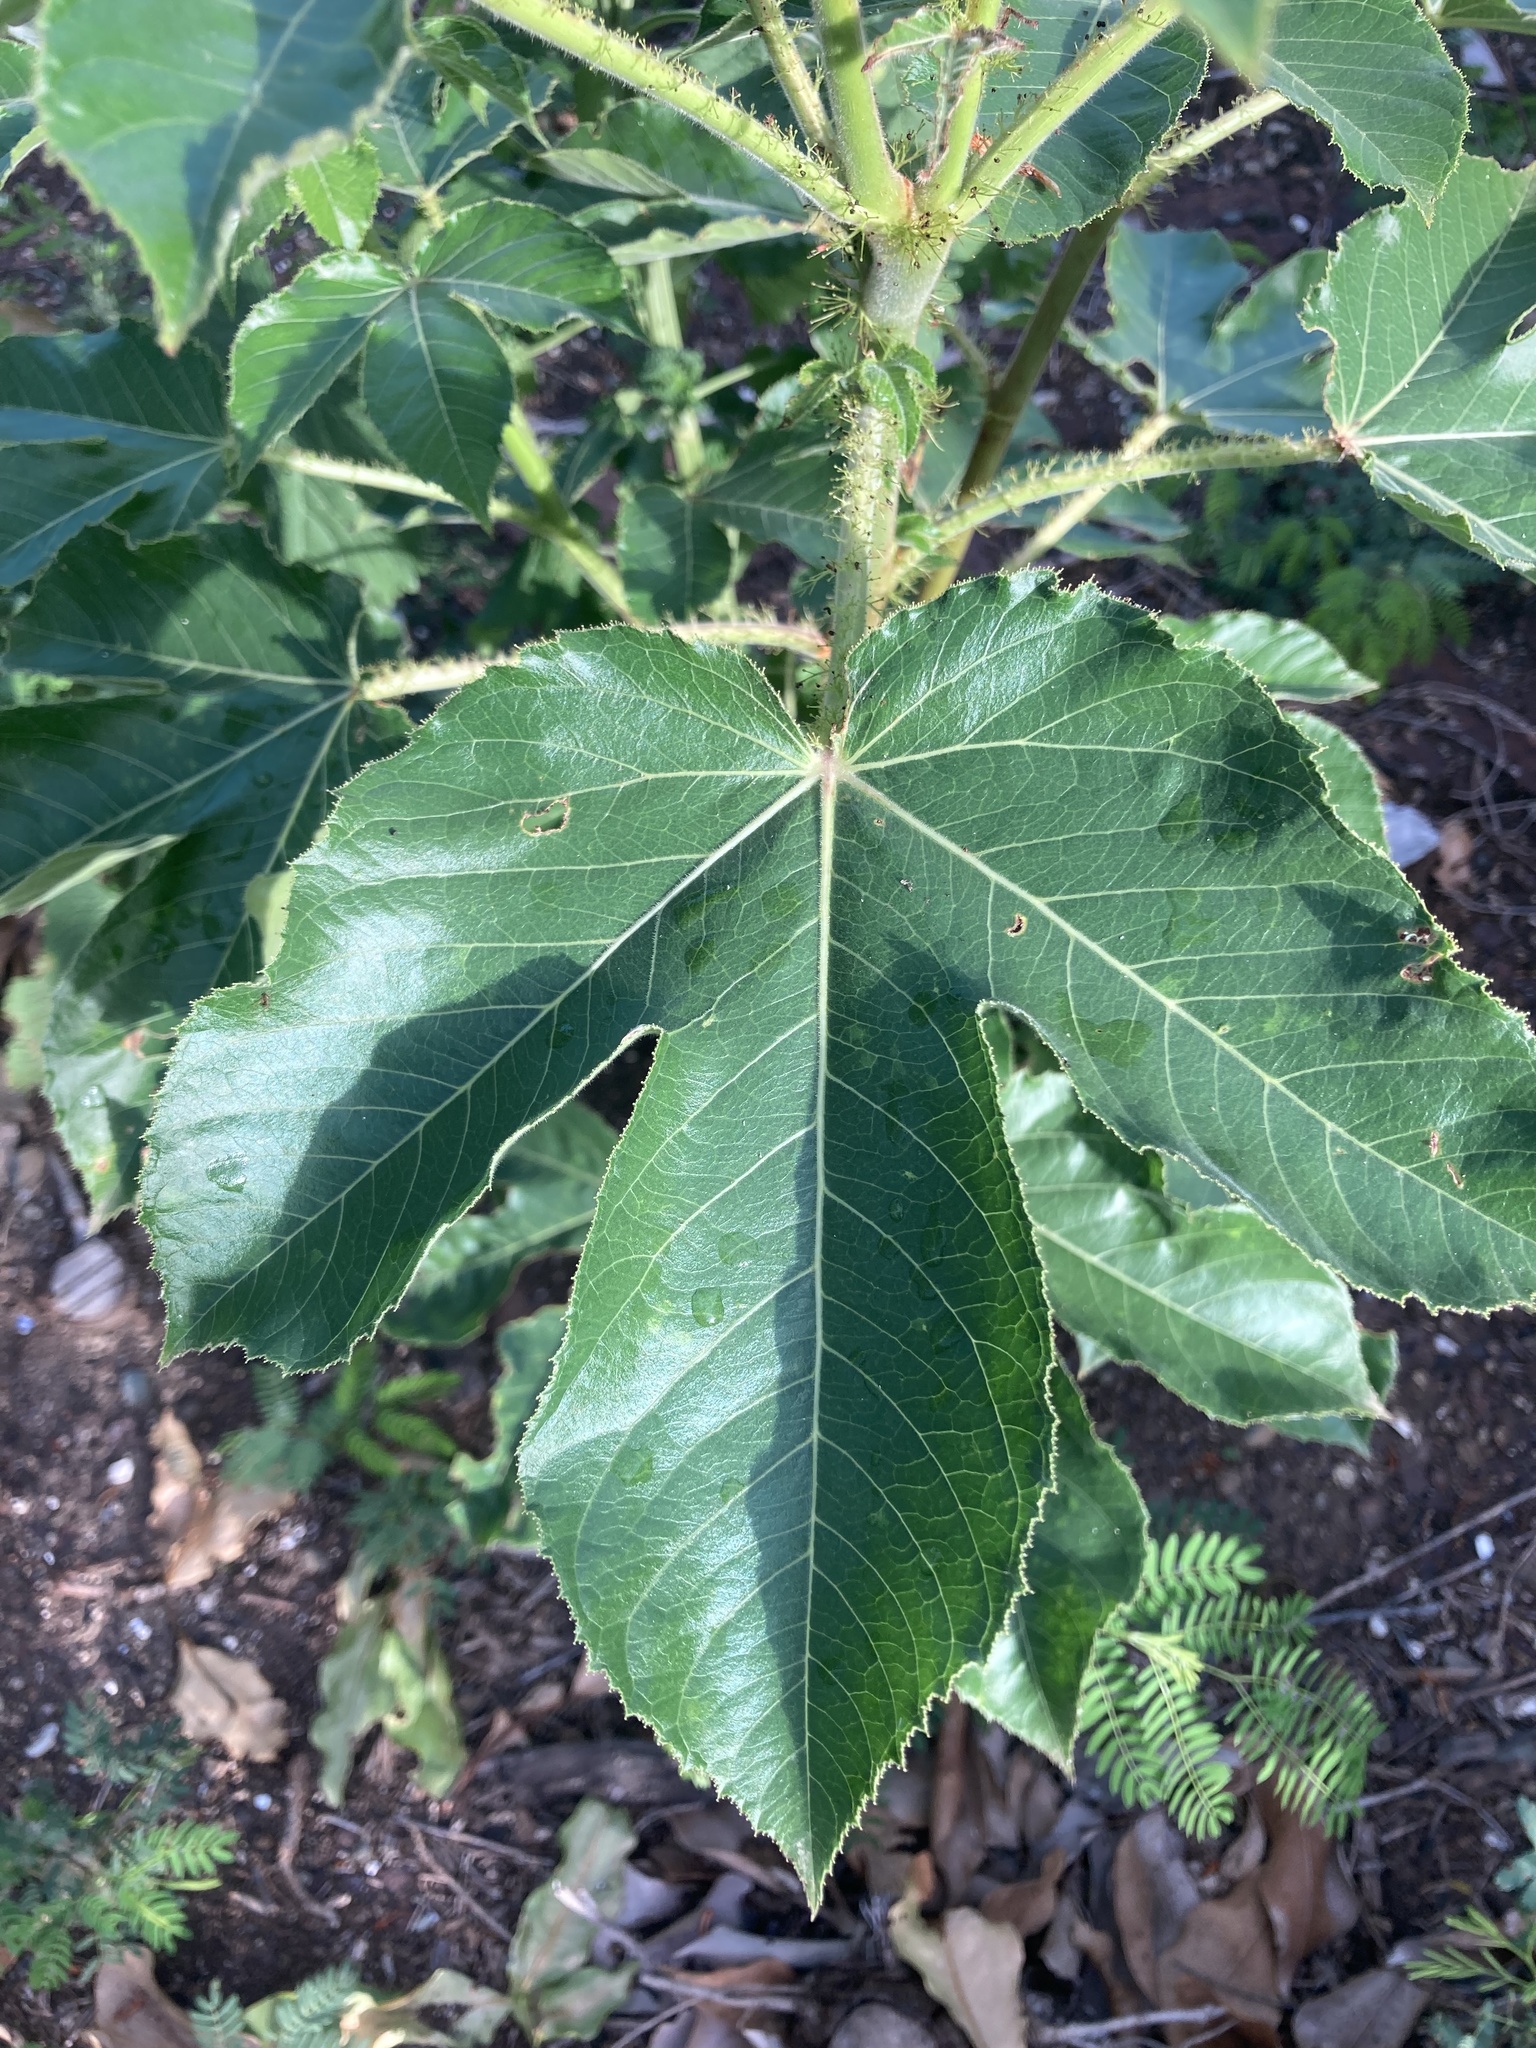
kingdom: Plantae
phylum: Tracheophyta
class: Magnoliopsida
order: Malpighiales
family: Euphorbiaceae
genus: Jatropha
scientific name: Jatropha gossypiifolia
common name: Bellyache bush
